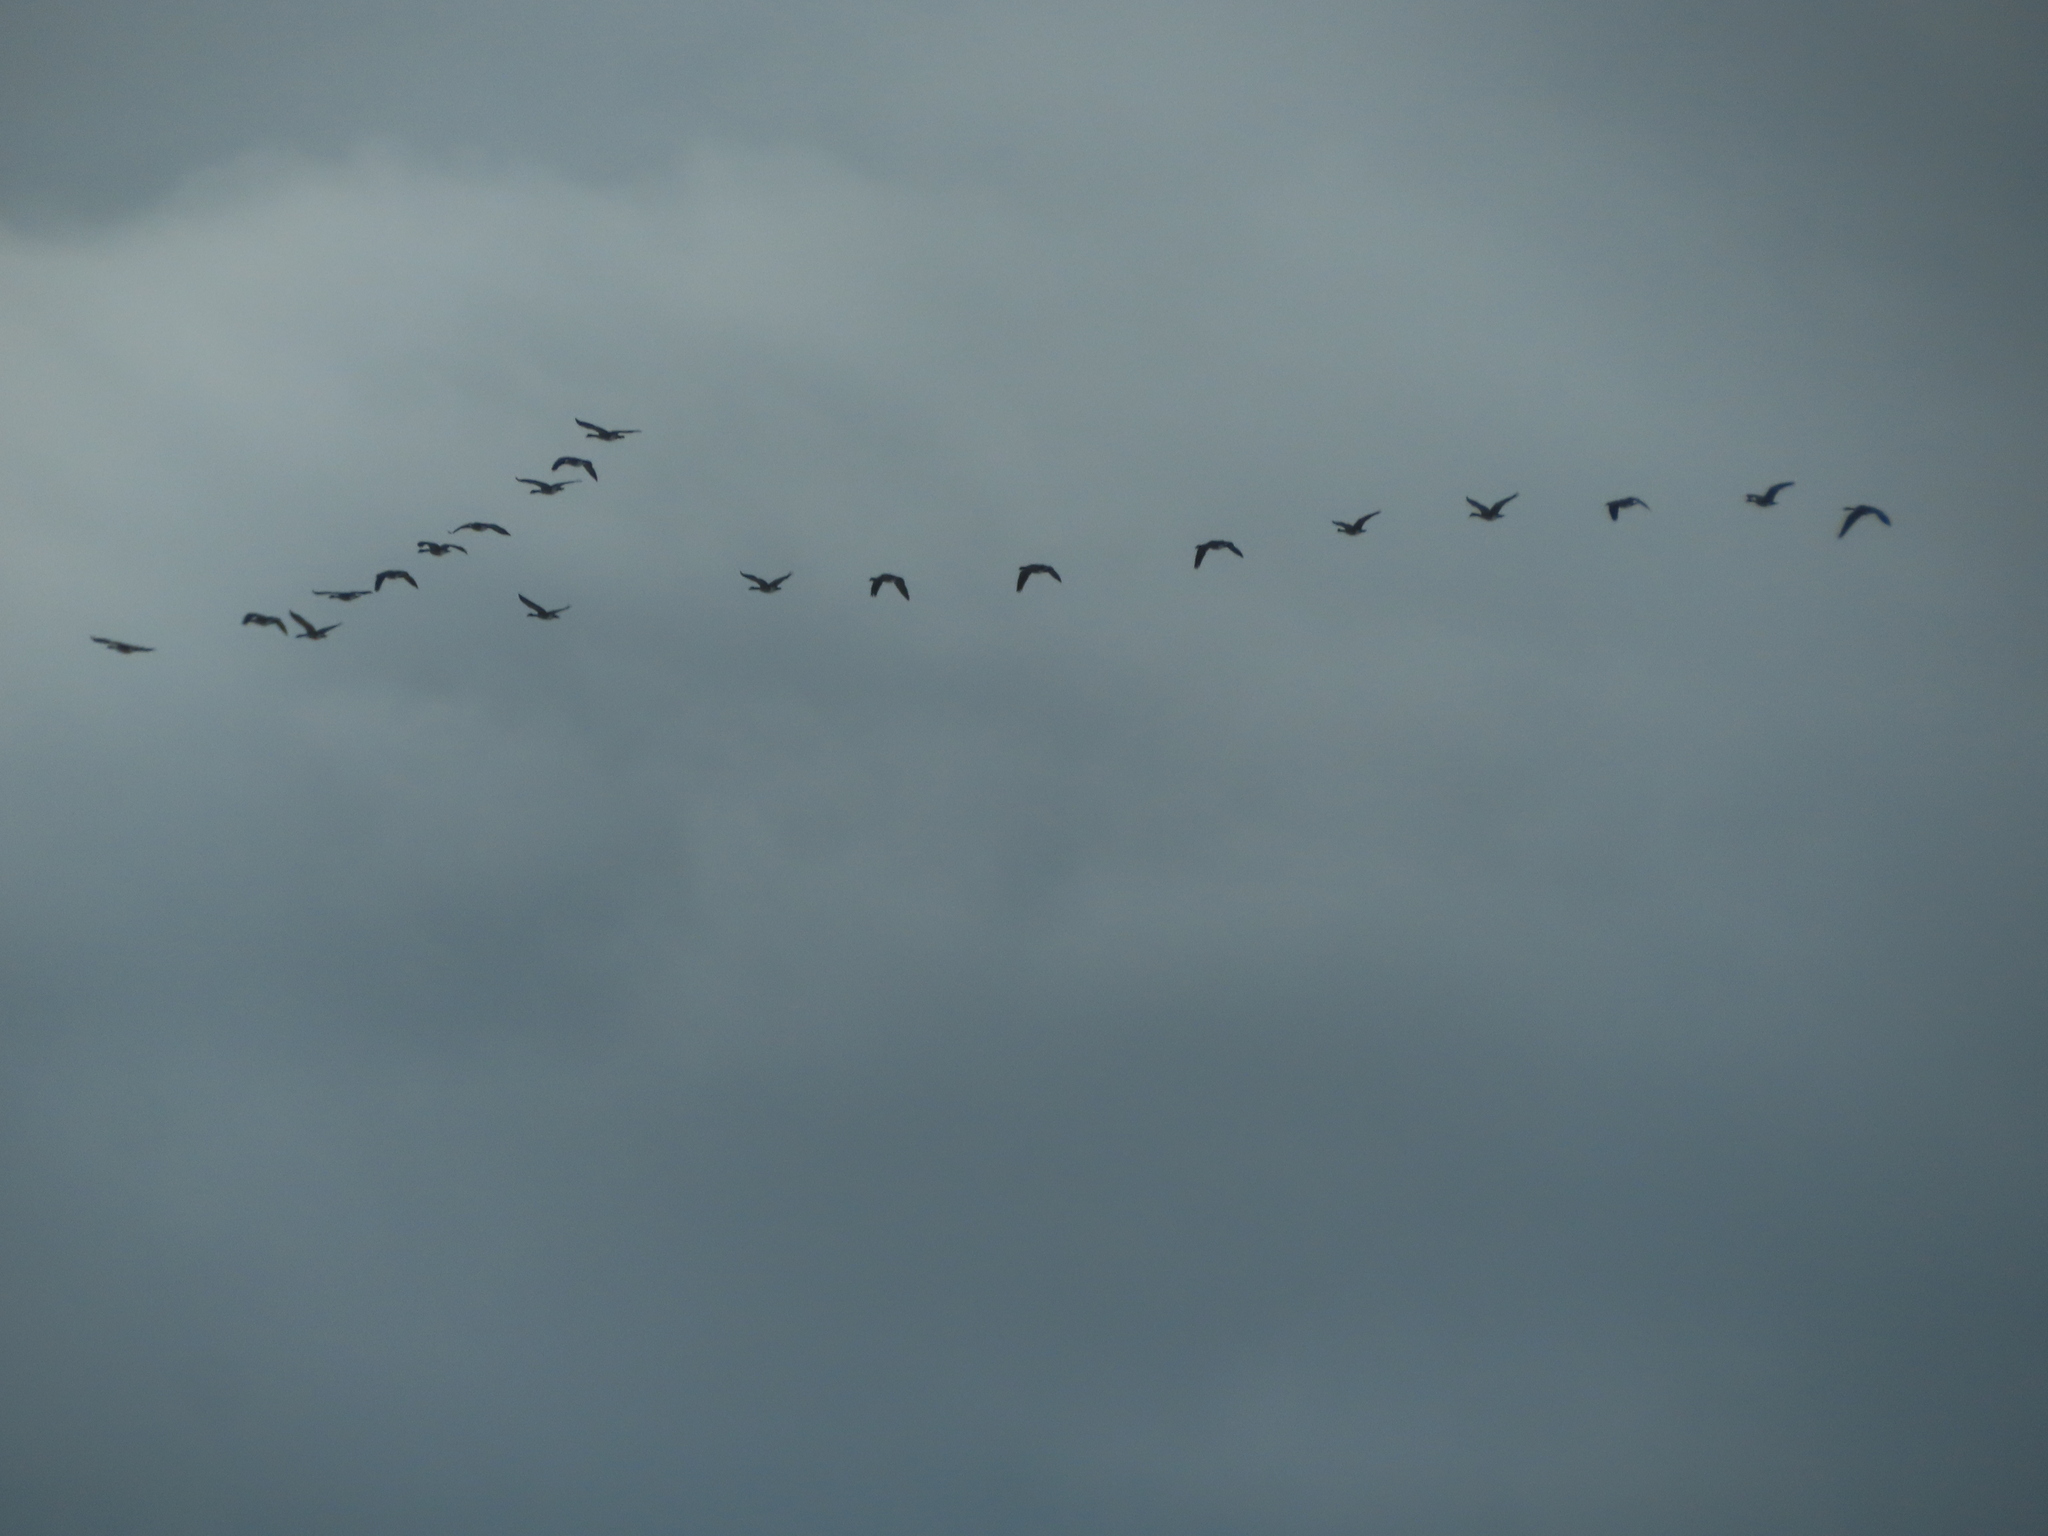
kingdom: Animalia
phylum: Chordata
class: Aves
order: Anseriformes
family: Anatidae
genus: Branta
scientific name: Branta canadensis
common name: Canada goose
